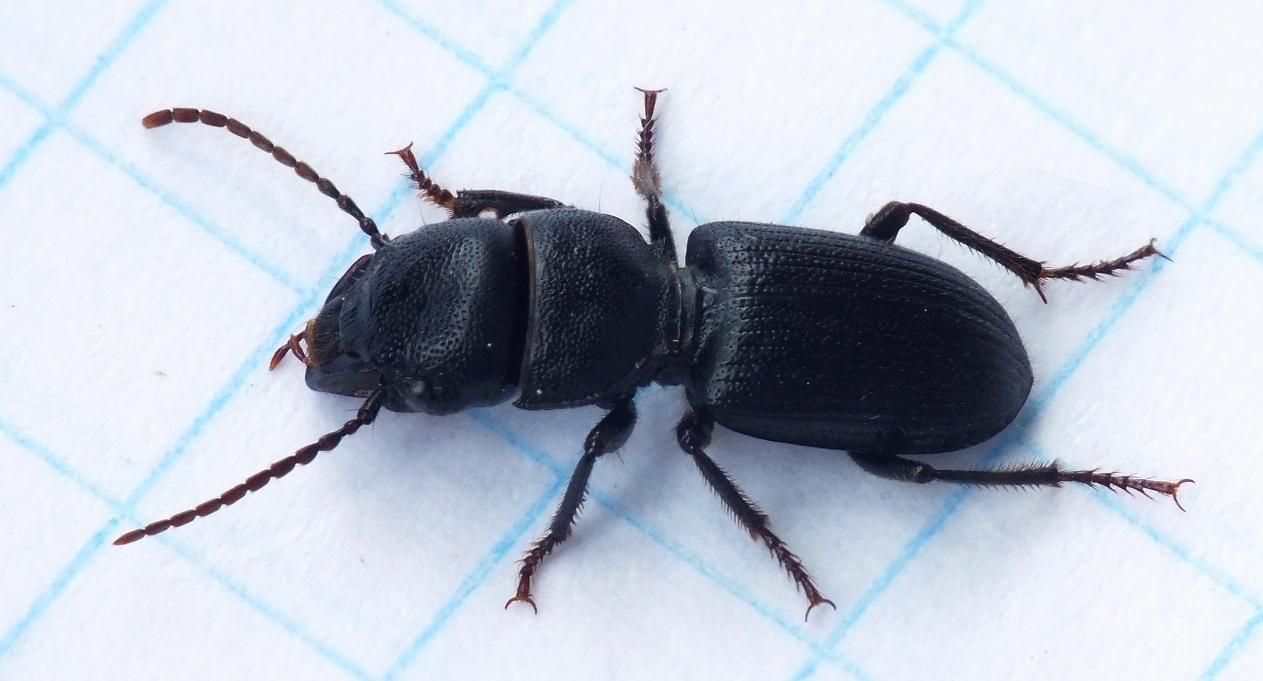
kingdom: Animalia
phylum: Arthropoda
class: Insecta
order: Coleoptera
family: Carabidae
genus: Dixus
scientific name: Dixus eremita
